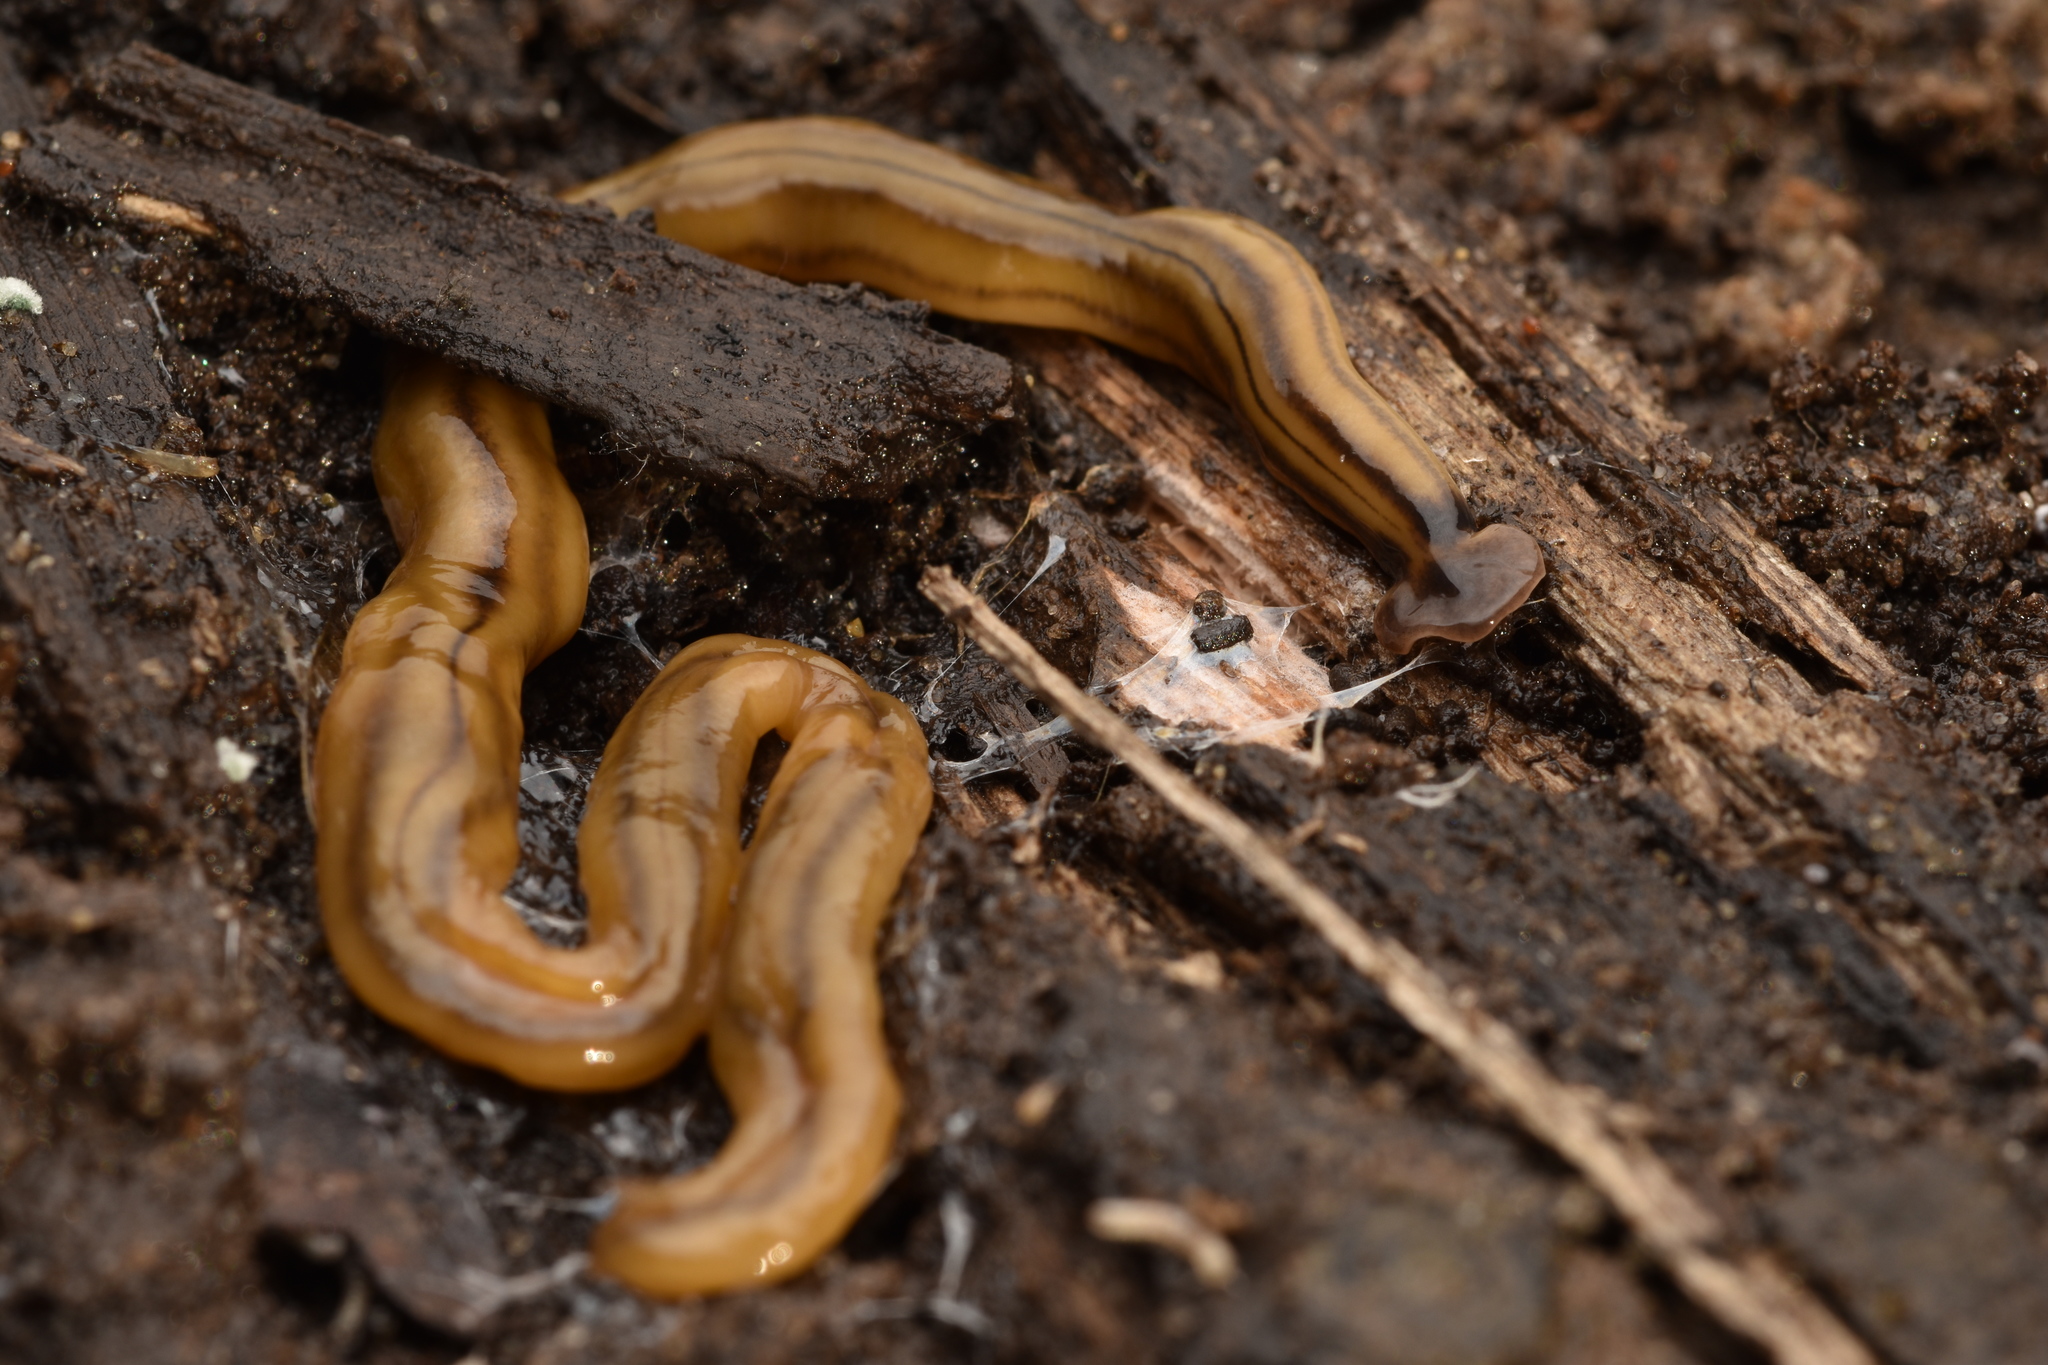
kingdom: Animalia
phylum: Platyhelminthes
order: Tricladida
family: Geoplanidae
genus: Bipalium
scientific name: Bipalium kewense
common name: Hammerhead flatworm
